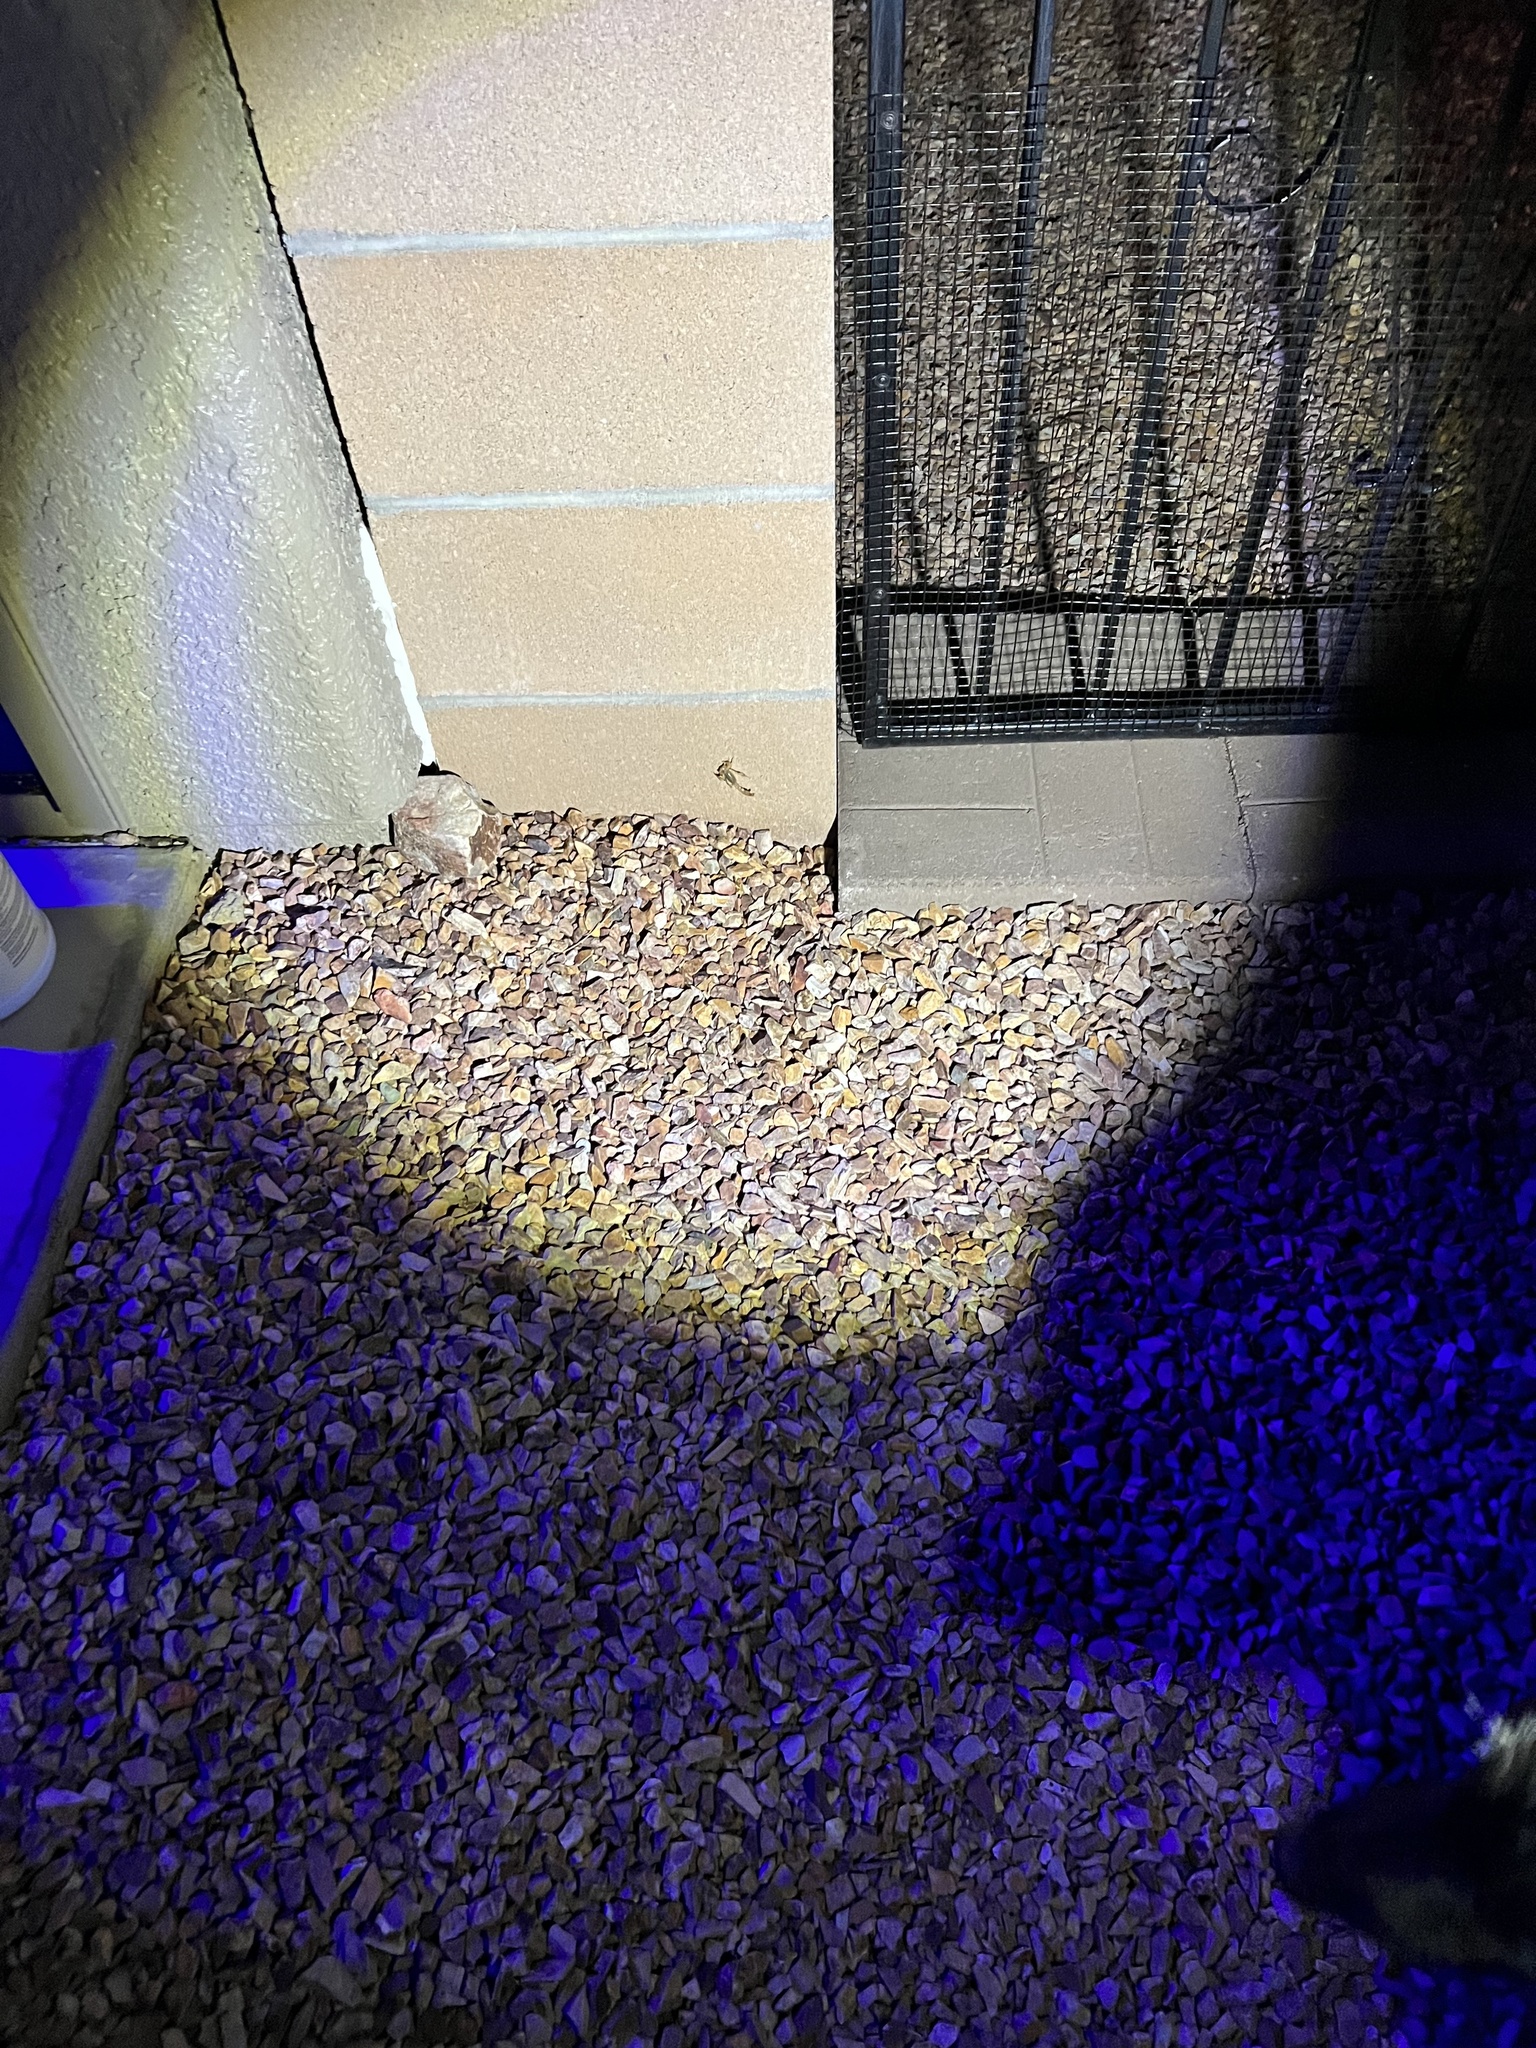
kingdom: Animalia
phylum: Arthropoda
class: Arachnida
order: Scorpiones
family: Vaejovidae
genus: Paravaejovis
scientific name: Paravaejovis spinigerus
